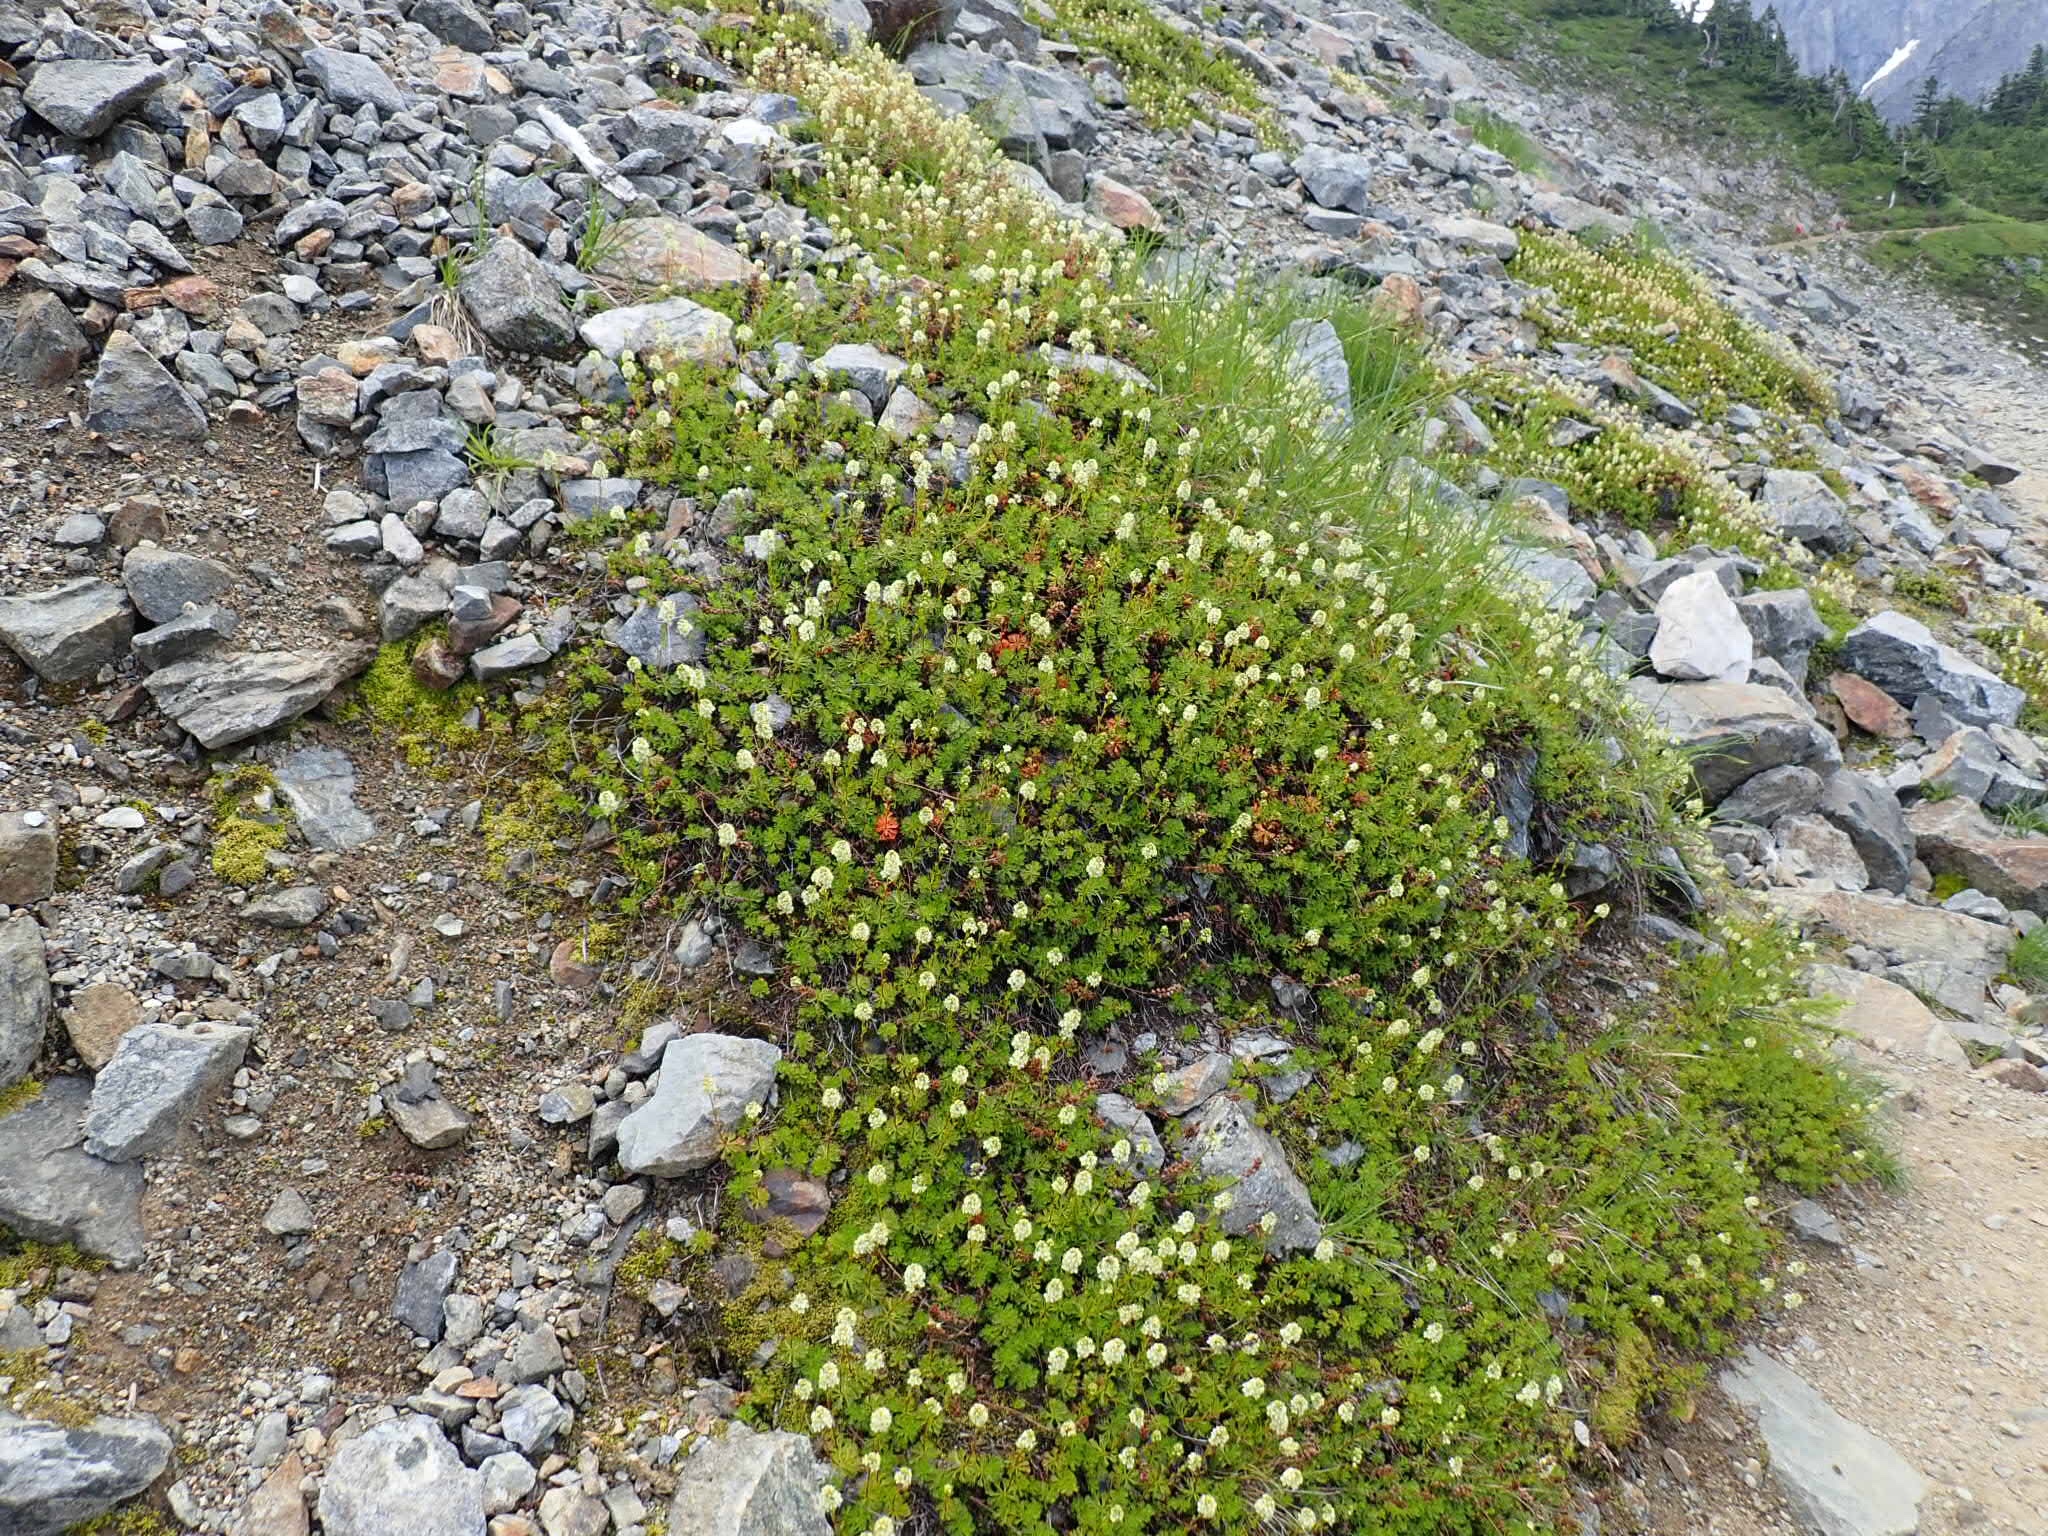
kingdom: Plantae
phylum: Tracheophyta
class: Magnoliopsida
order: Rosales
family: Rosaceae
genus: Luetkea
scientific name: Luetkea pectinata
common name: Partridgefoot
